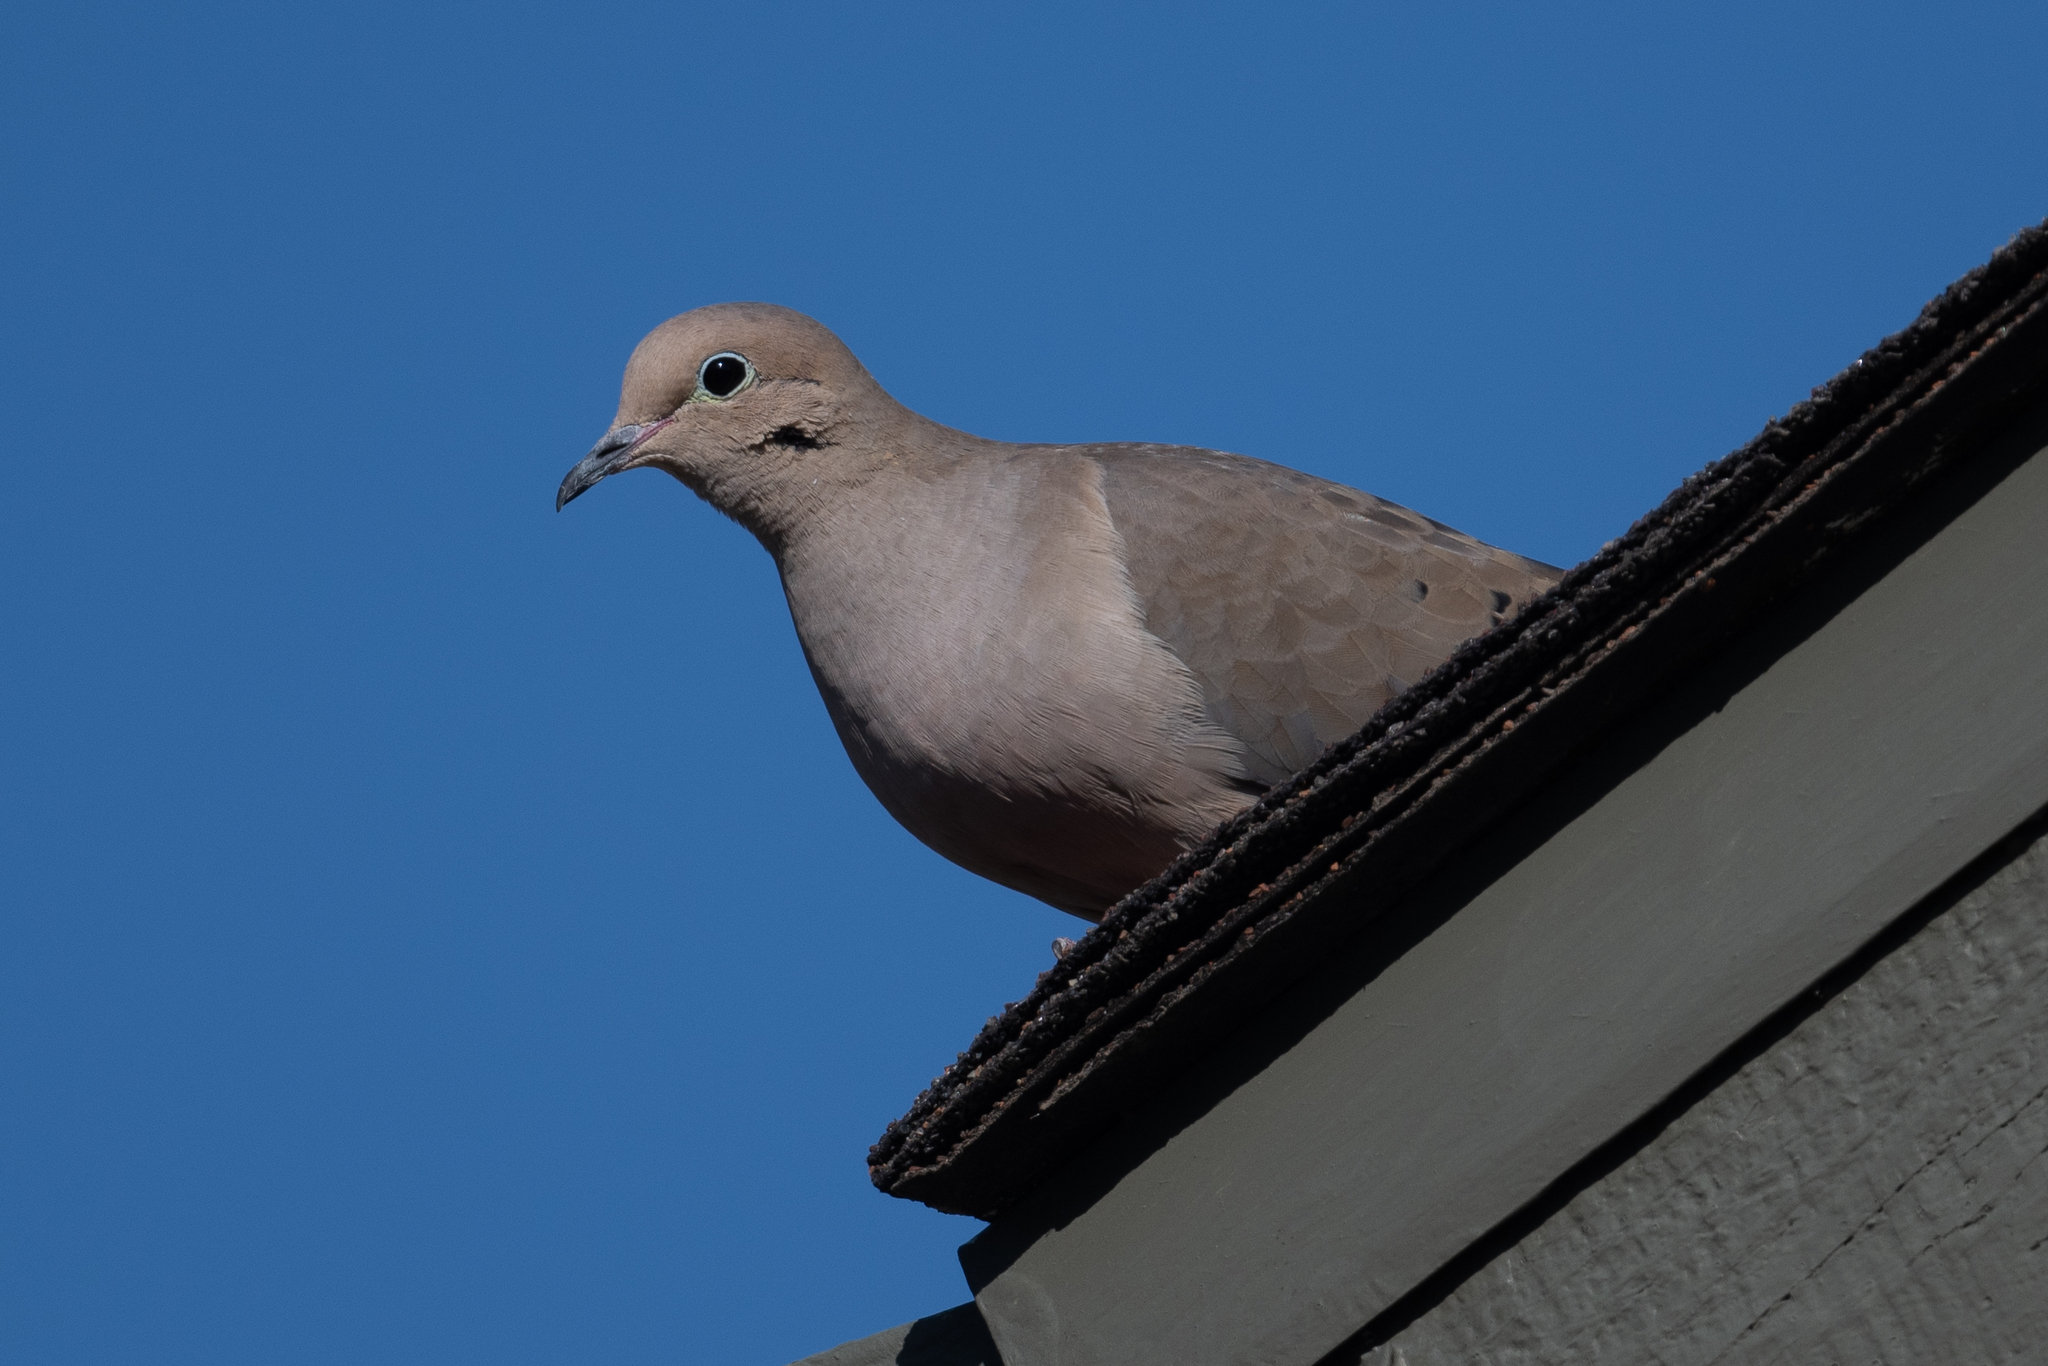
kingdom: Animalia
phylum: Chordata
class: Aves
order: Columbiformes
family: Columbidae
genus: Zenaida
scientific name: Zenaida macroura
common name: Mourning dove
